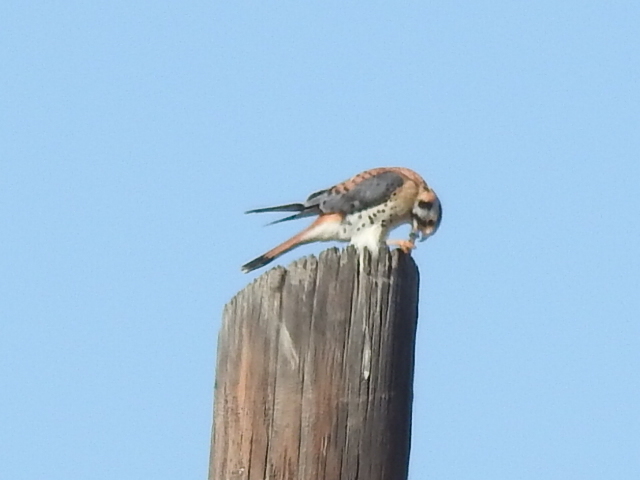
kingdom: Animalia
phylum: Chordata
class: Aves
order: Falconiformes
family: Falconidae
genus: Falco
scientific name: Falco sparverius
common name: American kestrel
